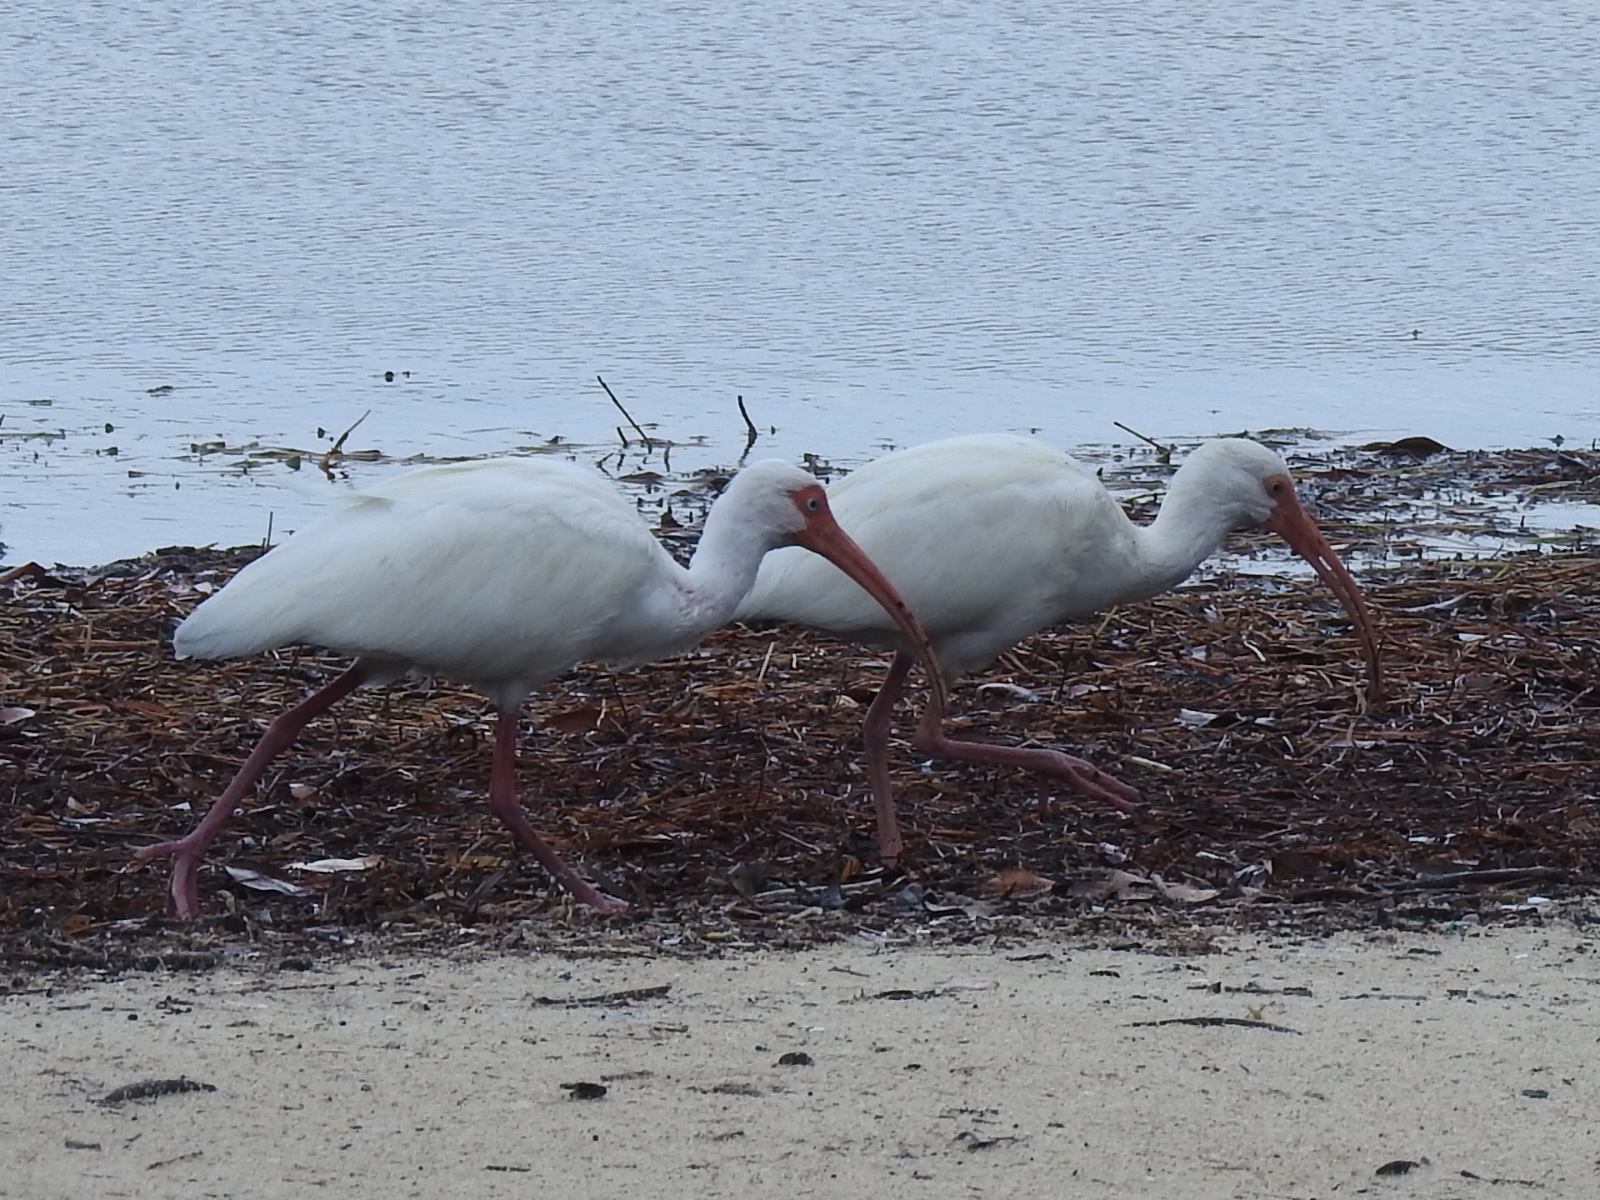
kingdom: Animalia
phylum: Chordata
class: Aves
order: Pelecaniformes
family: Threskiornithidae
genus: Eudocimus
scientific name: Eudocimus albus
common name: White ibis
